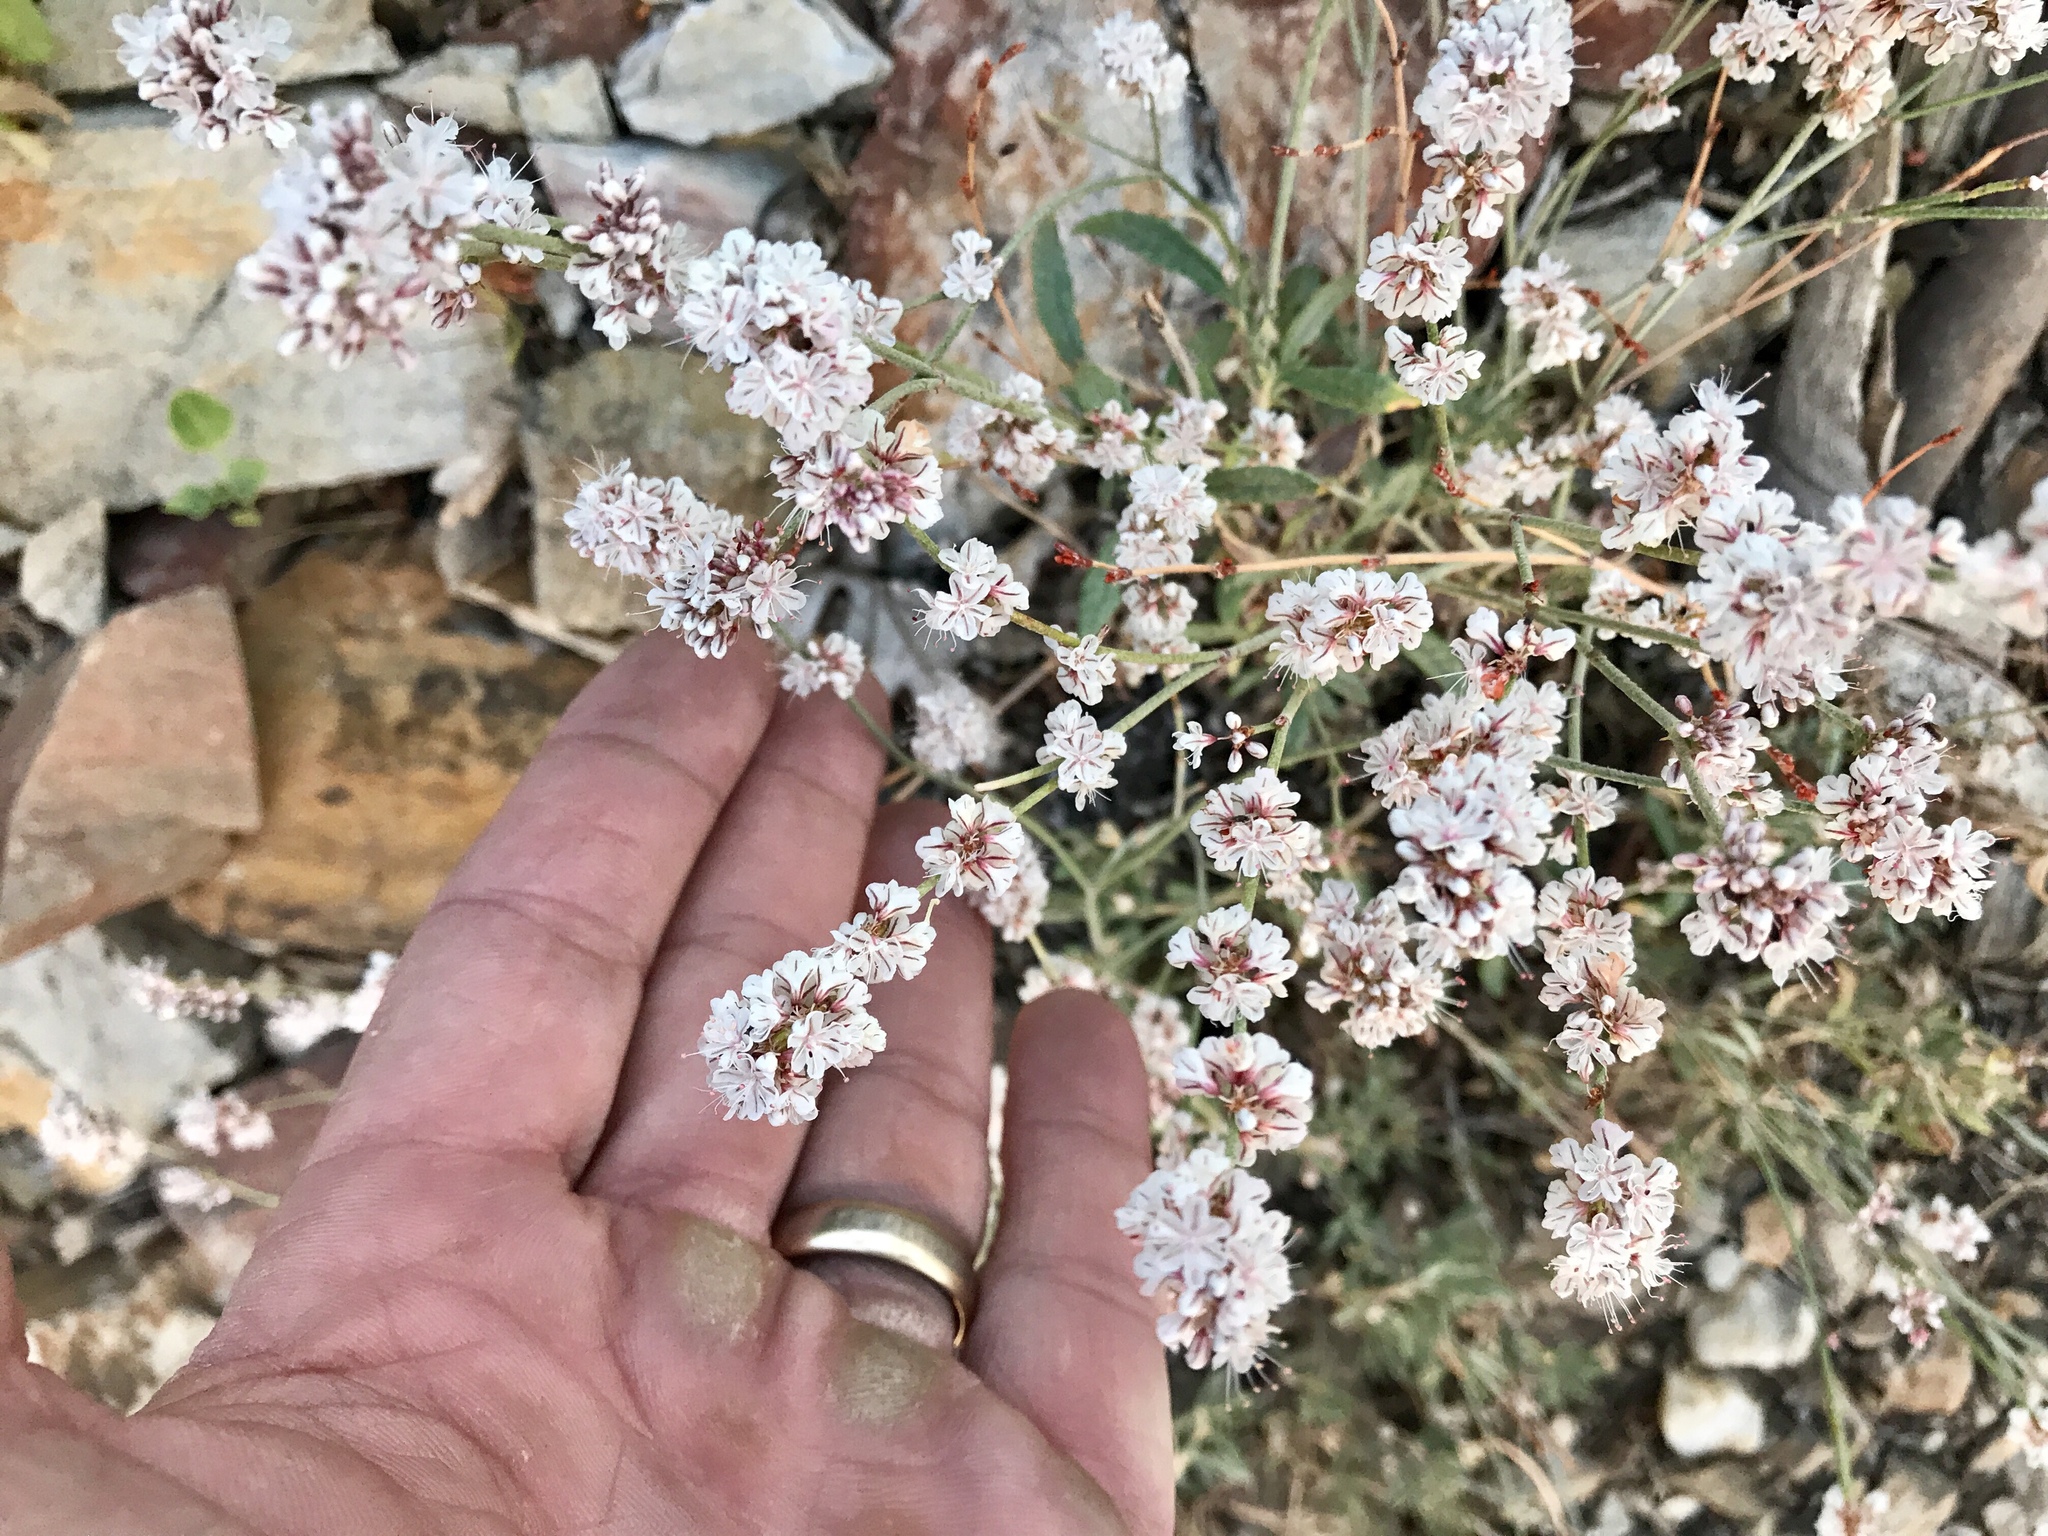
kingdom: Plantae
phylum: Tracheophyta
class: Magnoliopsida
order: Caryophyllales
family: Polygonaceae
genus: Eriogonum
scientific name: Eriogonum fasciculatum
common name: California wild buckwheat
